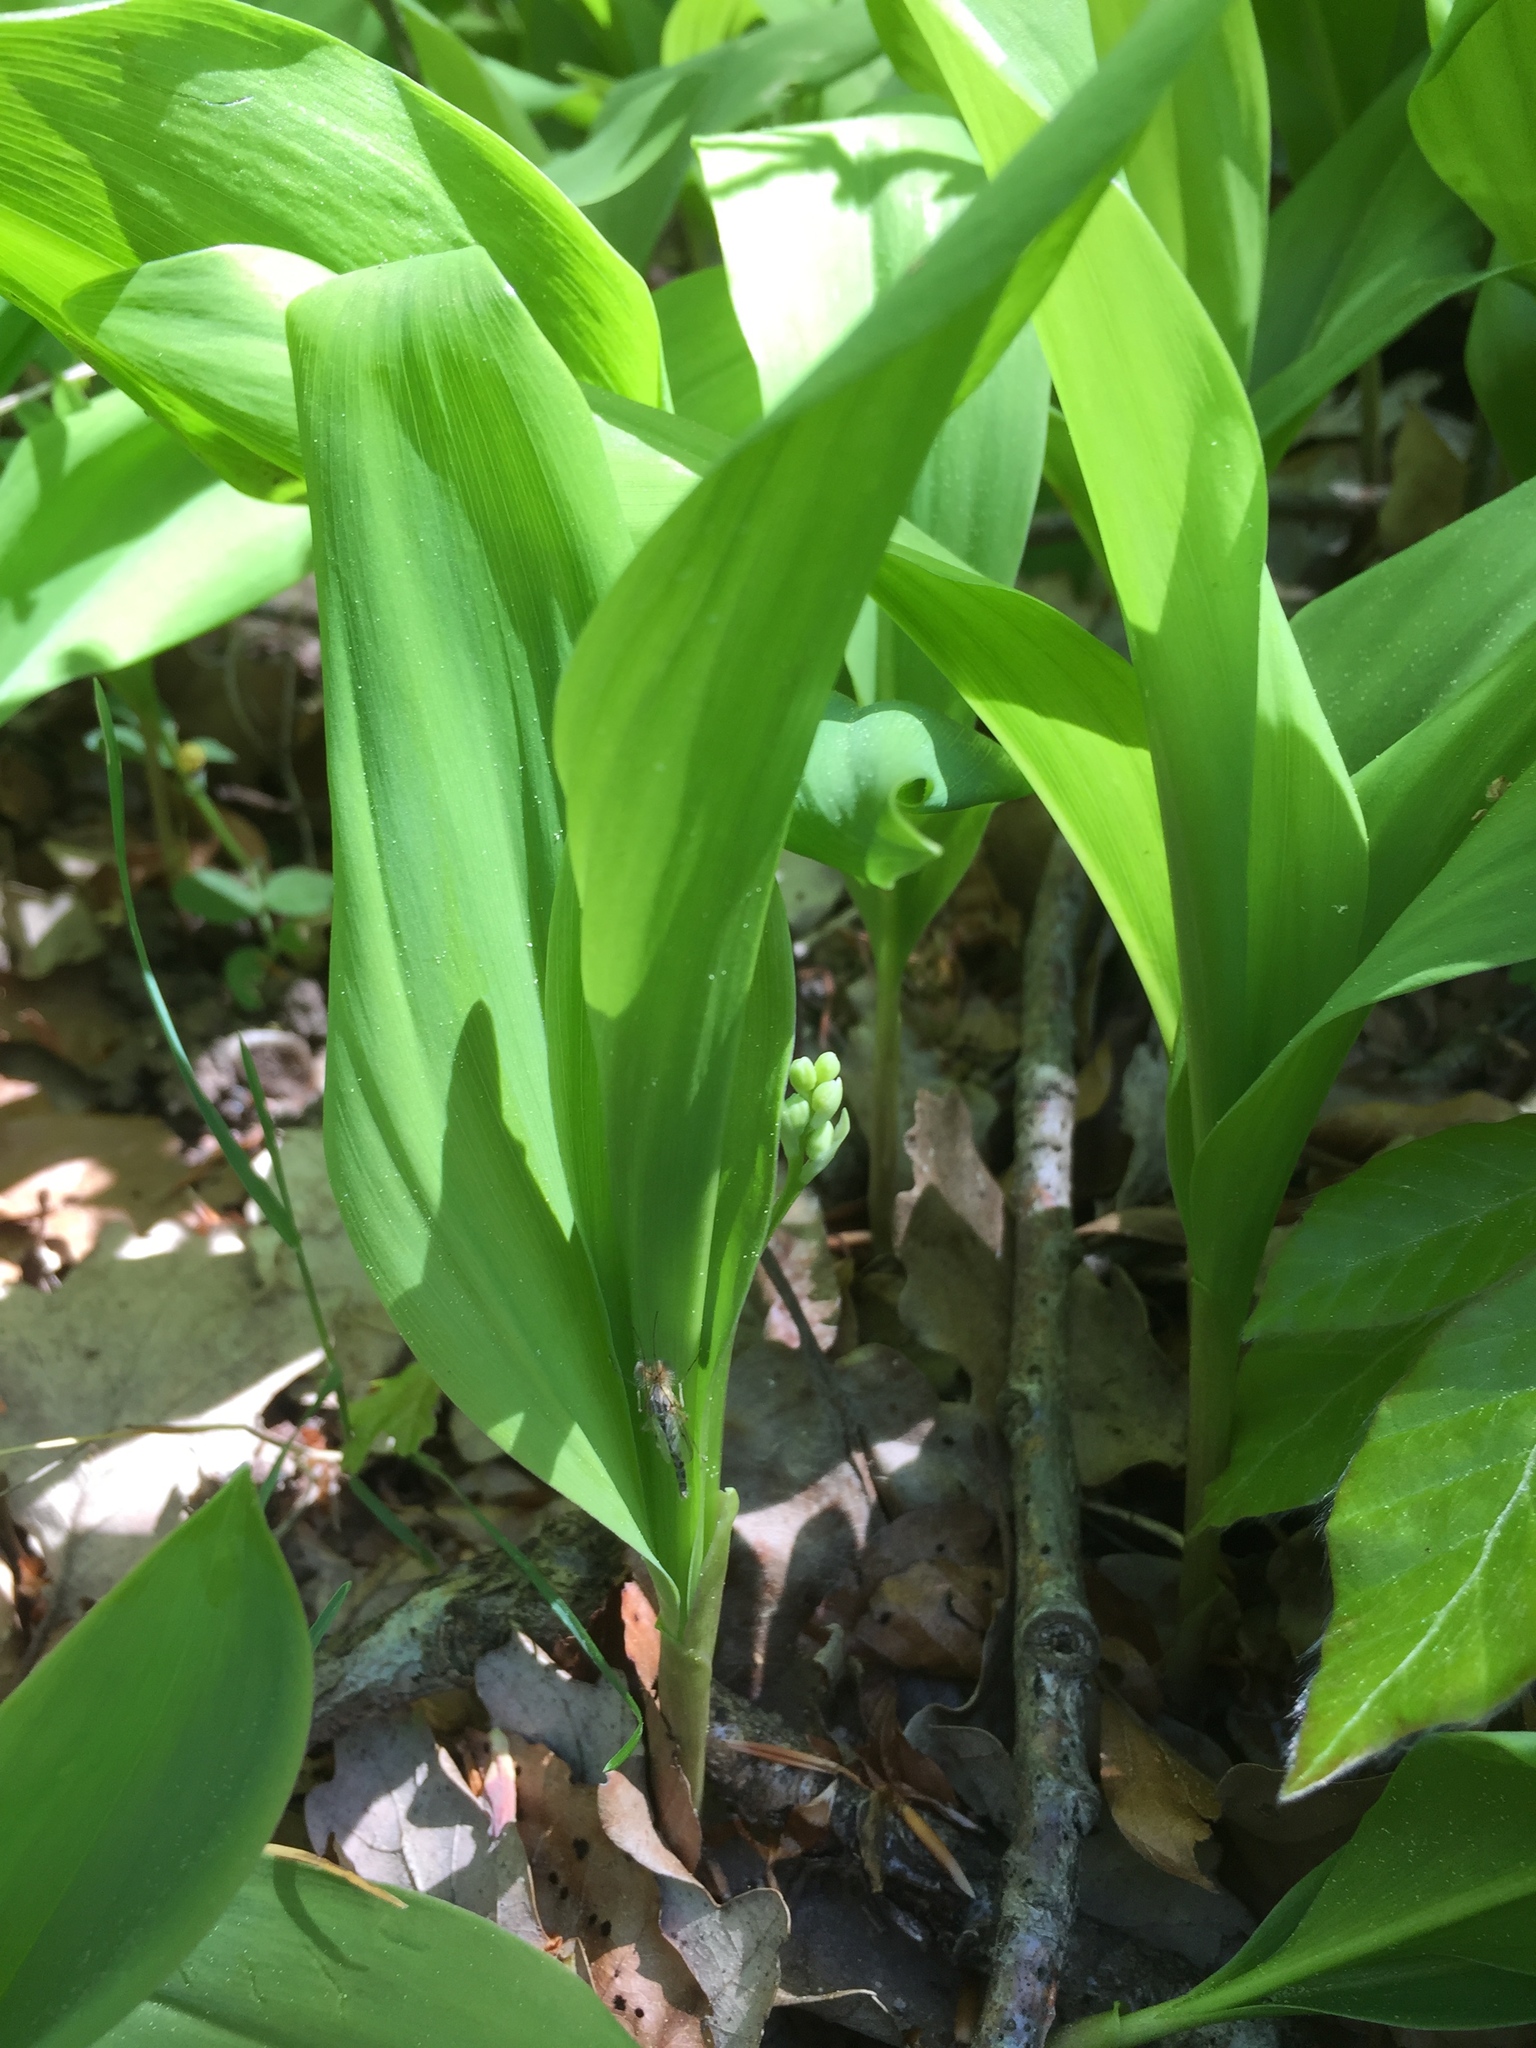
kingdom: Plantae
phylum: Tracheophyta
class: Liliopsida
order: Asparagales
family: Asparagaceae
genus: Convallaria
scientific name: Convallaria majalis
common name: Lily-of-the-valley
